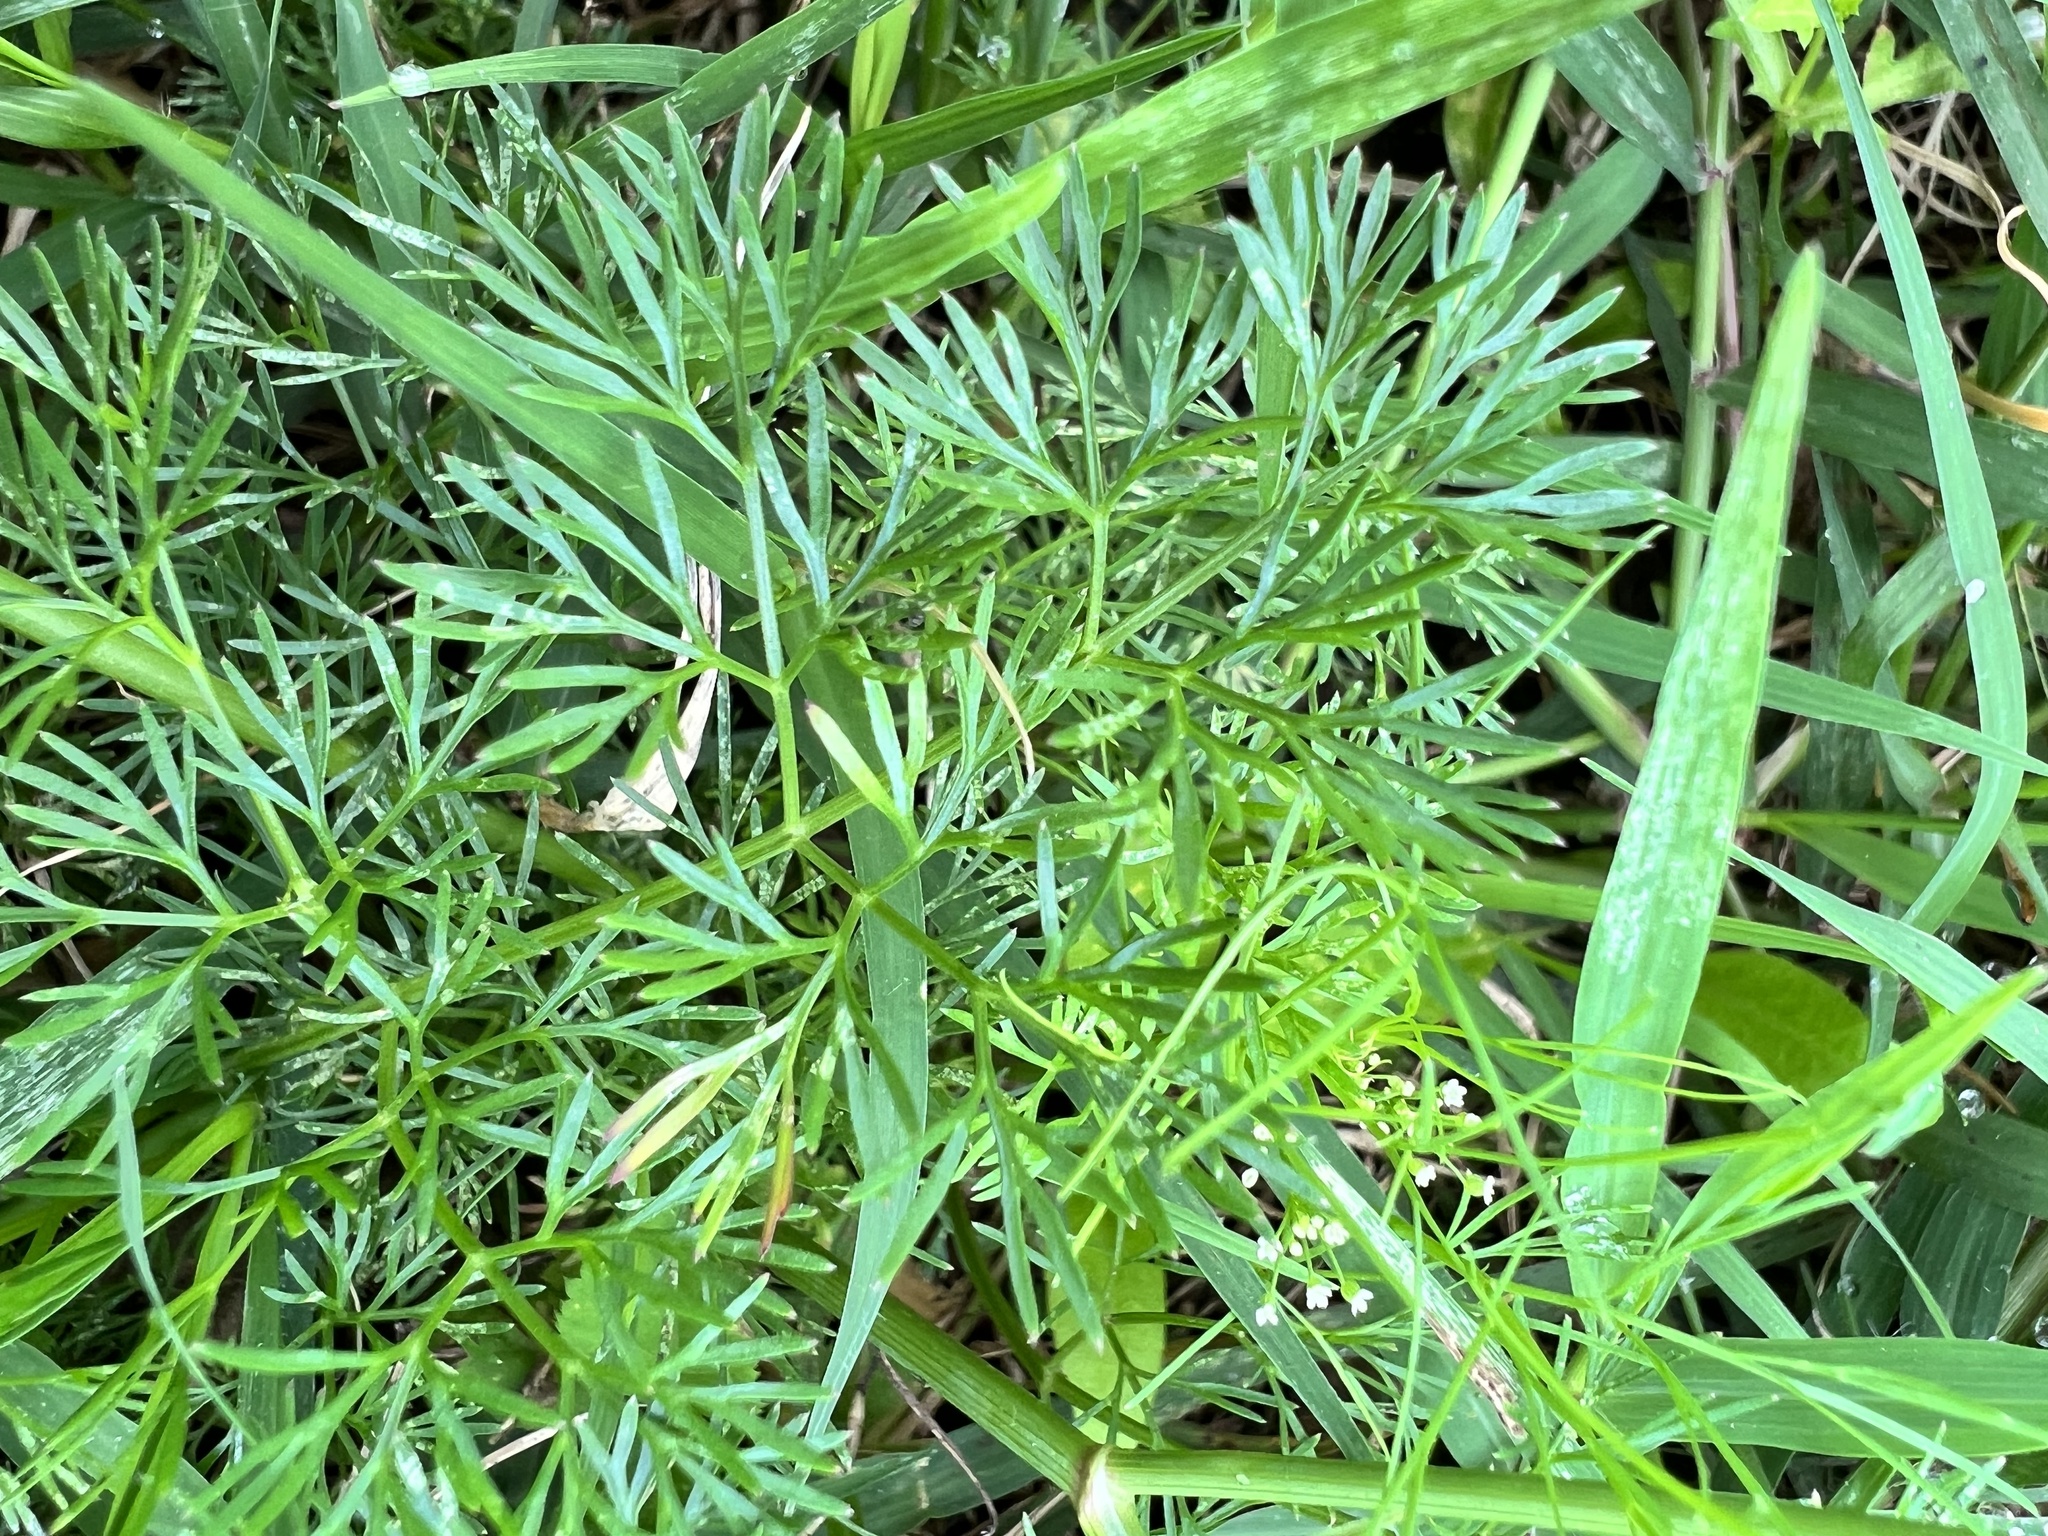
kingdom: Plantae
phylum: Tracheophyta
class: Magnoliopsida
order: Apiales
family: Apiaceae
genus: Cyclospermum
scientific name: Cyclospermum leptophyllum
